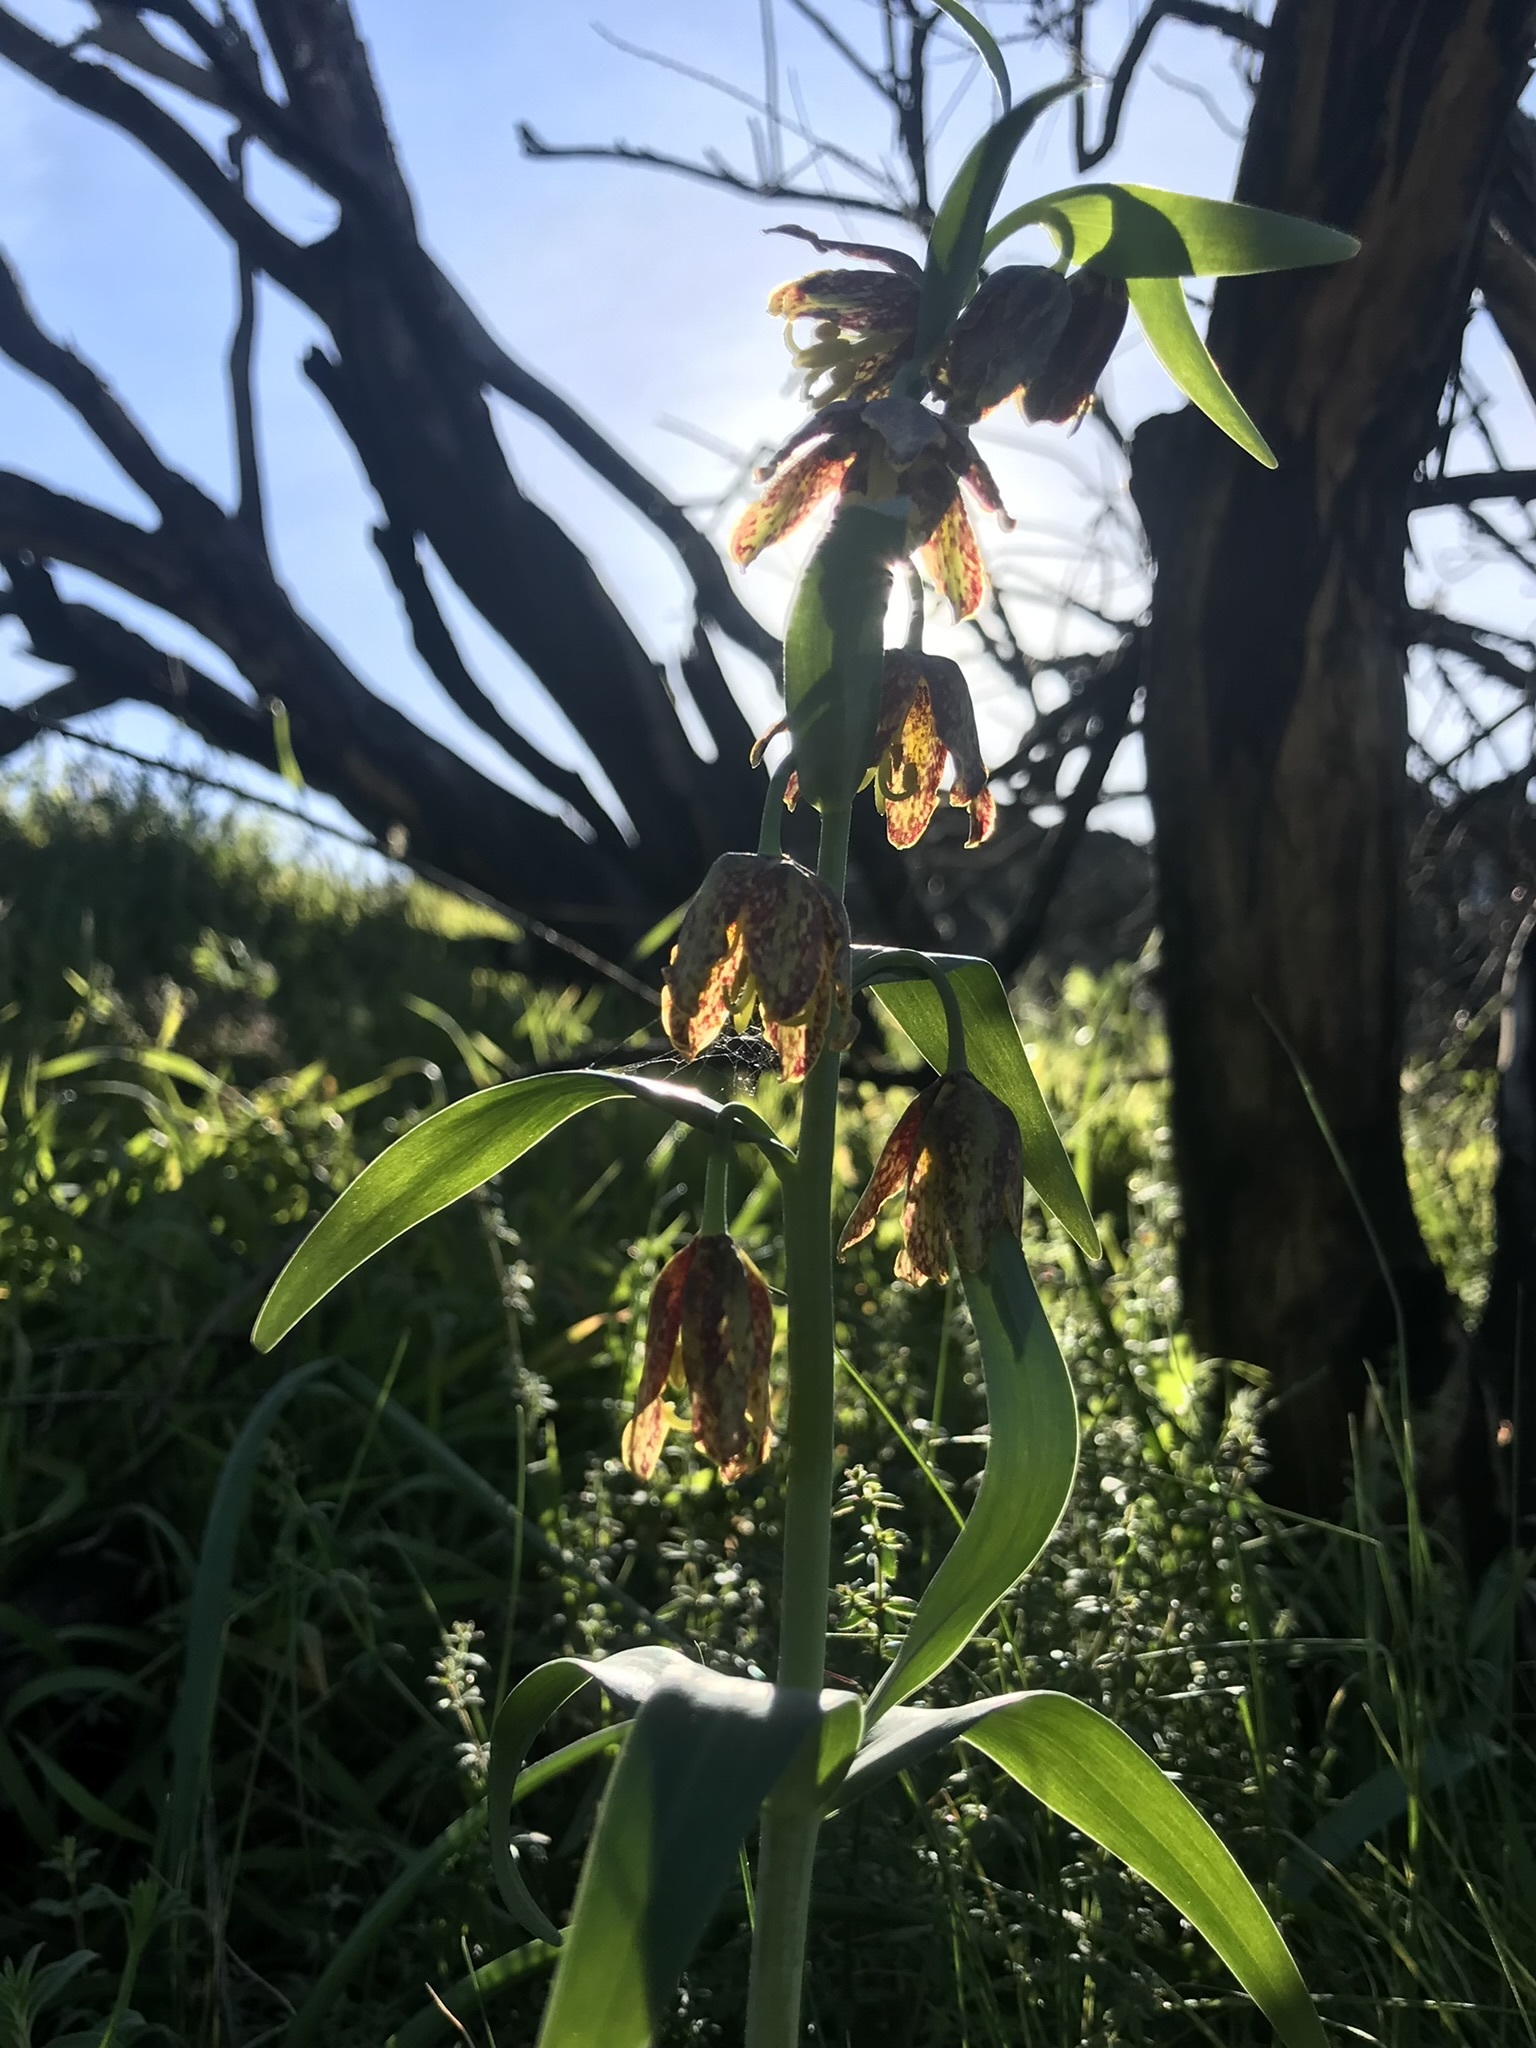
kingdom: Plantae
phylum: Tracheophyta
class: Liliopsida
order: Liliales
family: Liliaceae
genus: Fritillaria
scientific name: Fritillaria affinis
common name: Ojai fritillary
